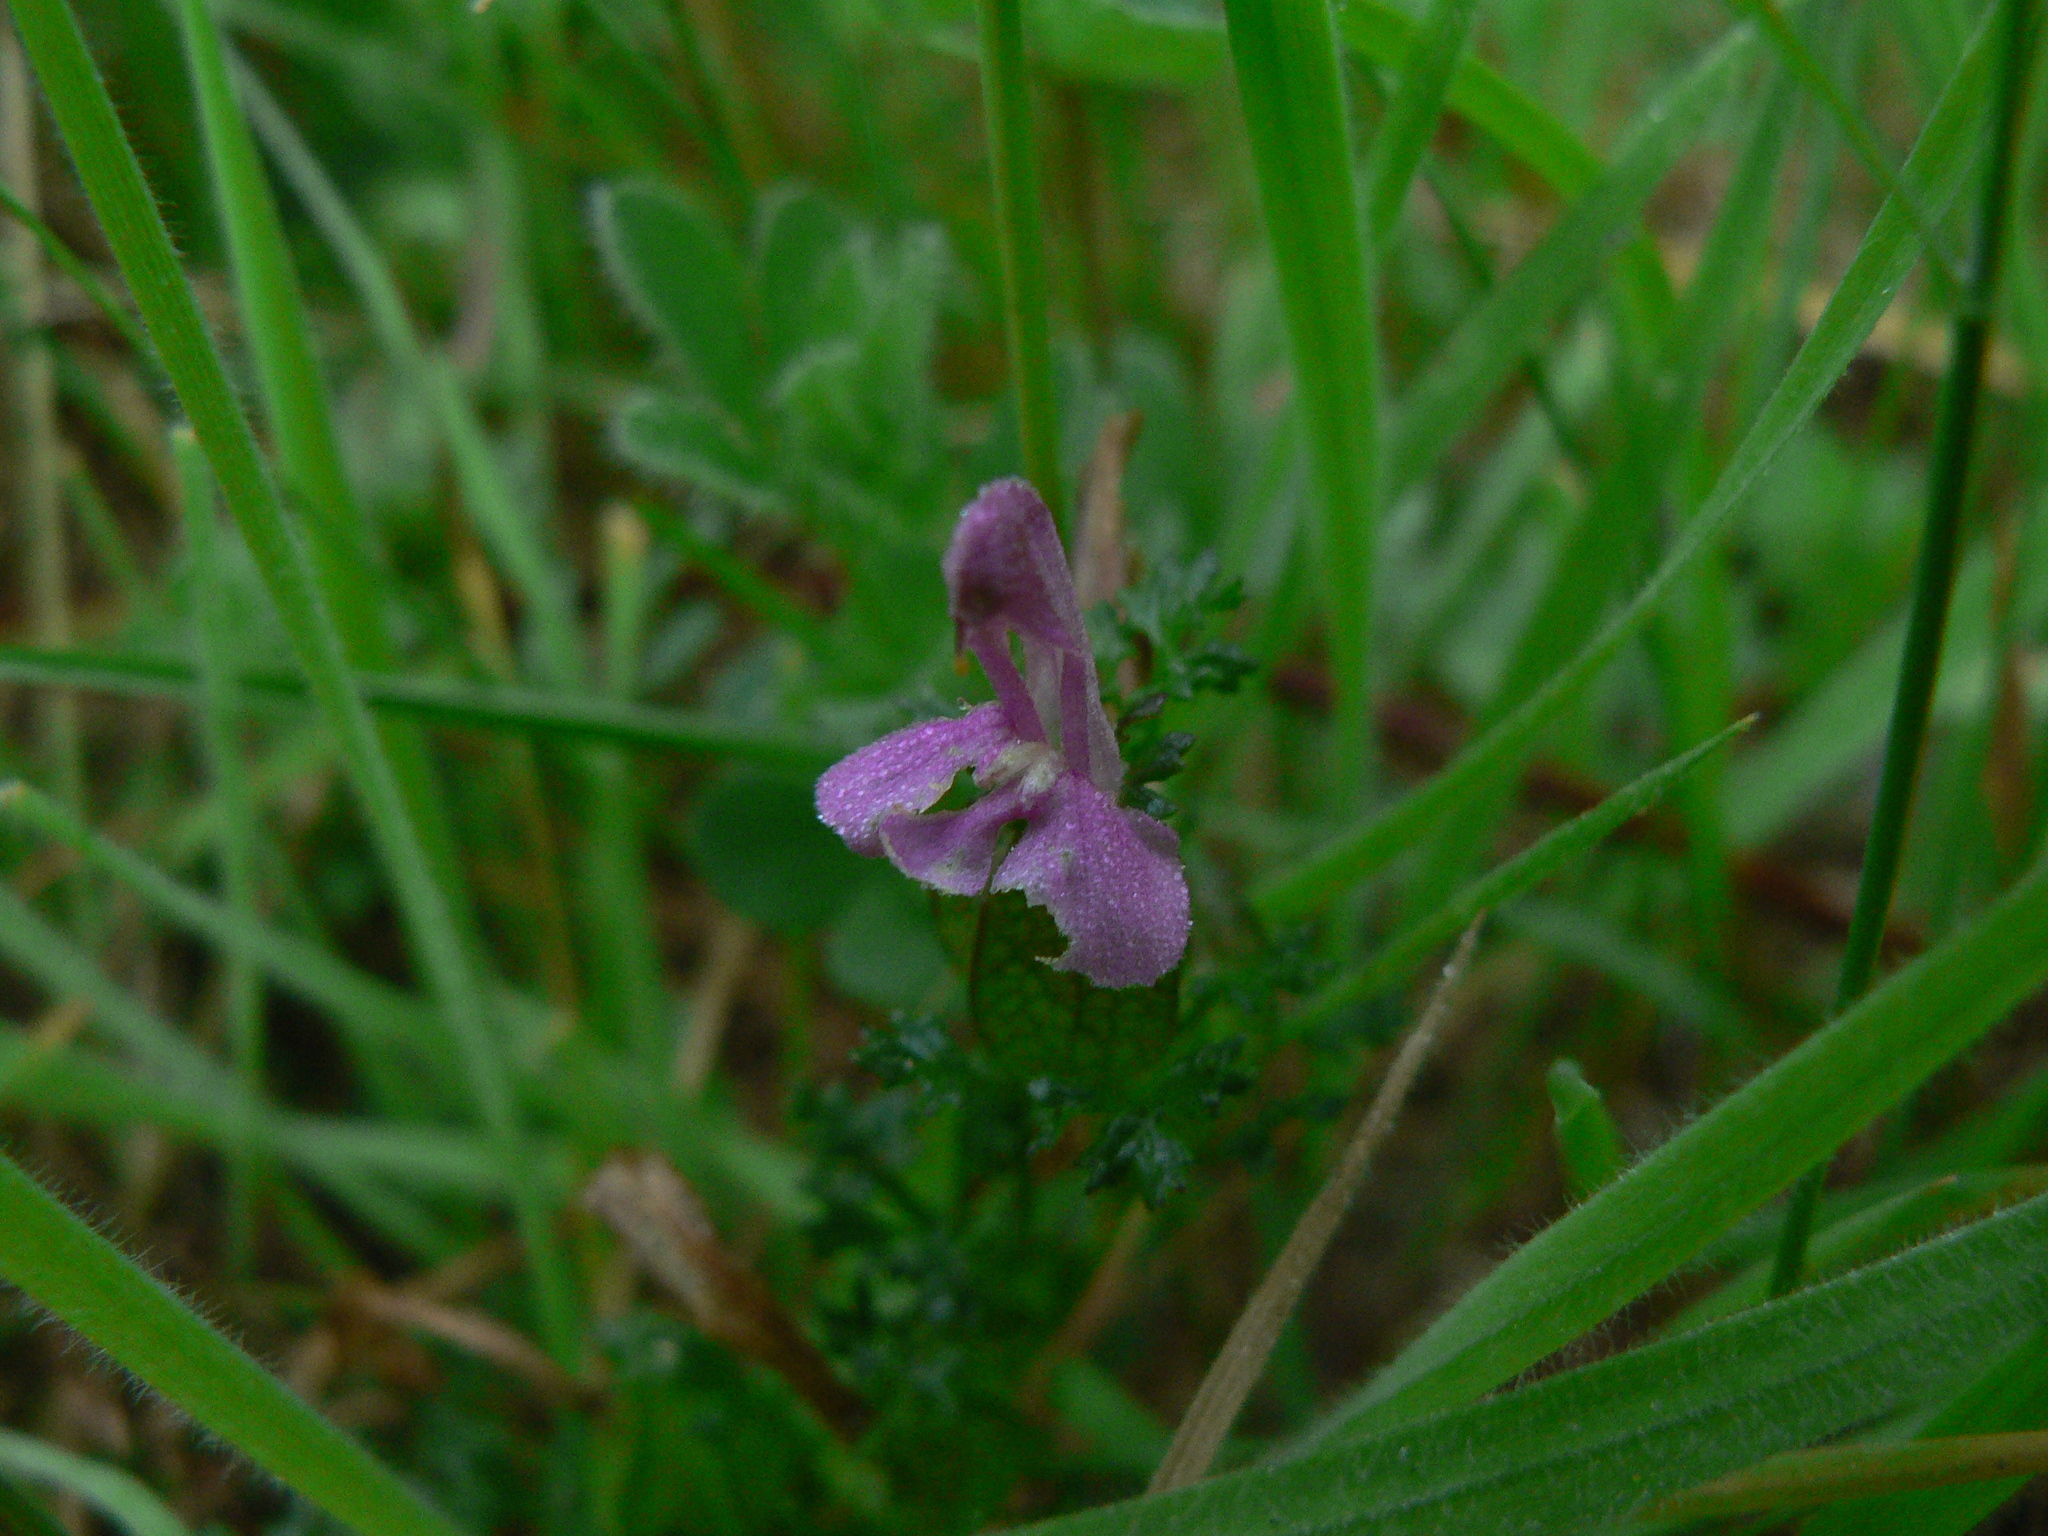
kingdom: Plantae
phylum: Tracheophyta
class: Magnoliopsida
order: Lamiales
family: Orobanchaceae
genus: Pedicularis
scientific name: Pedicularis sylvatica
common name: Lousewort
